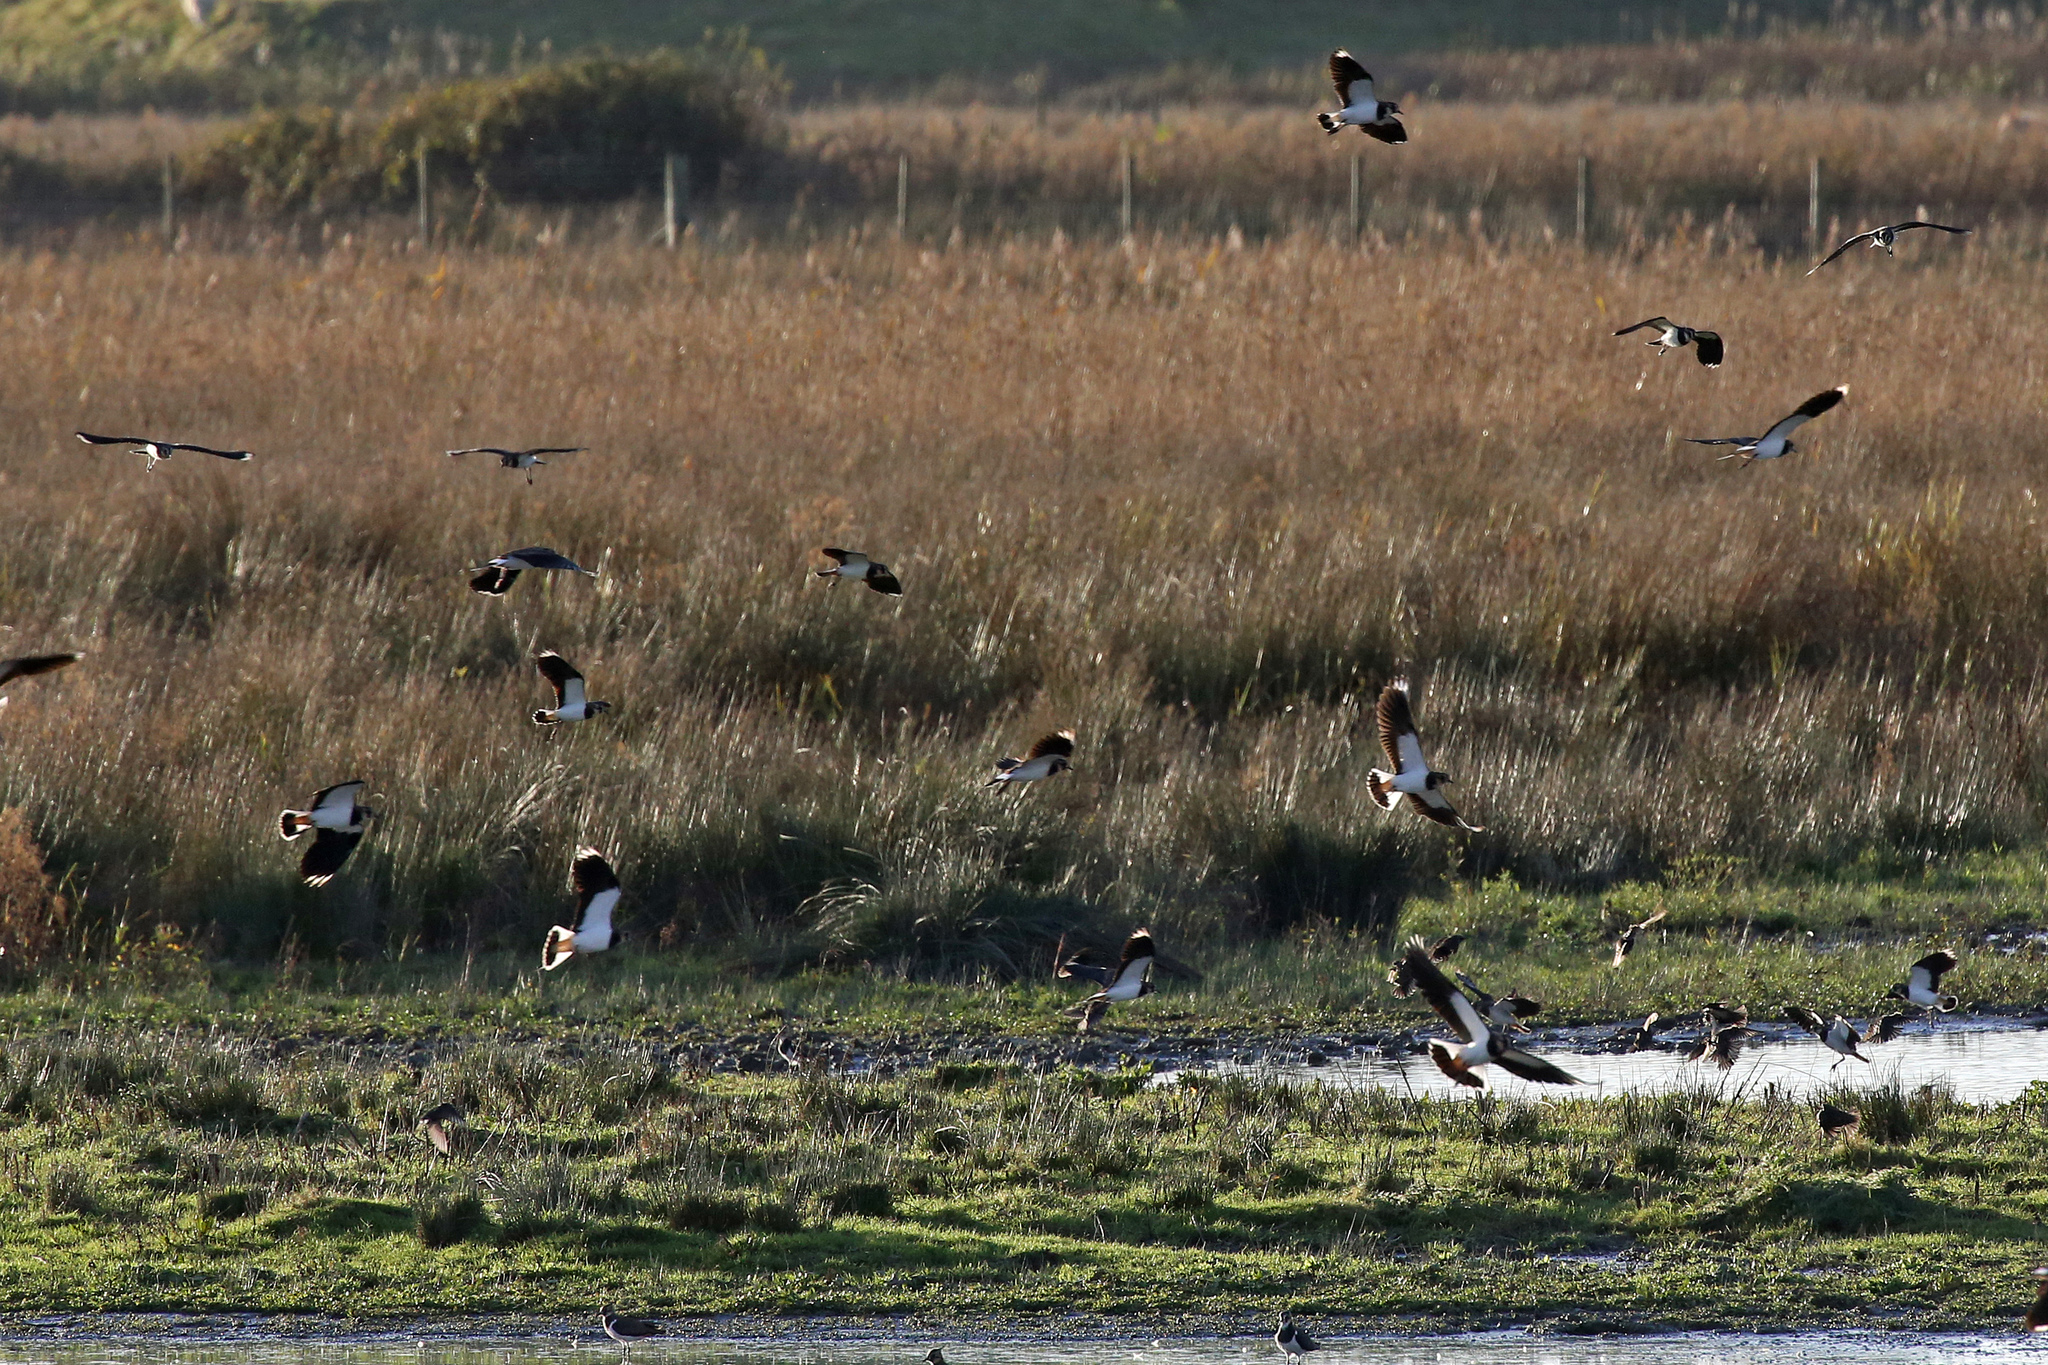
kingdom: Animalia
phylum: Chordata
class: Aves
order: Charadriiformes
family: Charadriidae
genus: Vanellus
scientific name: Vanellus vanellus
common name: Northern lapwing
